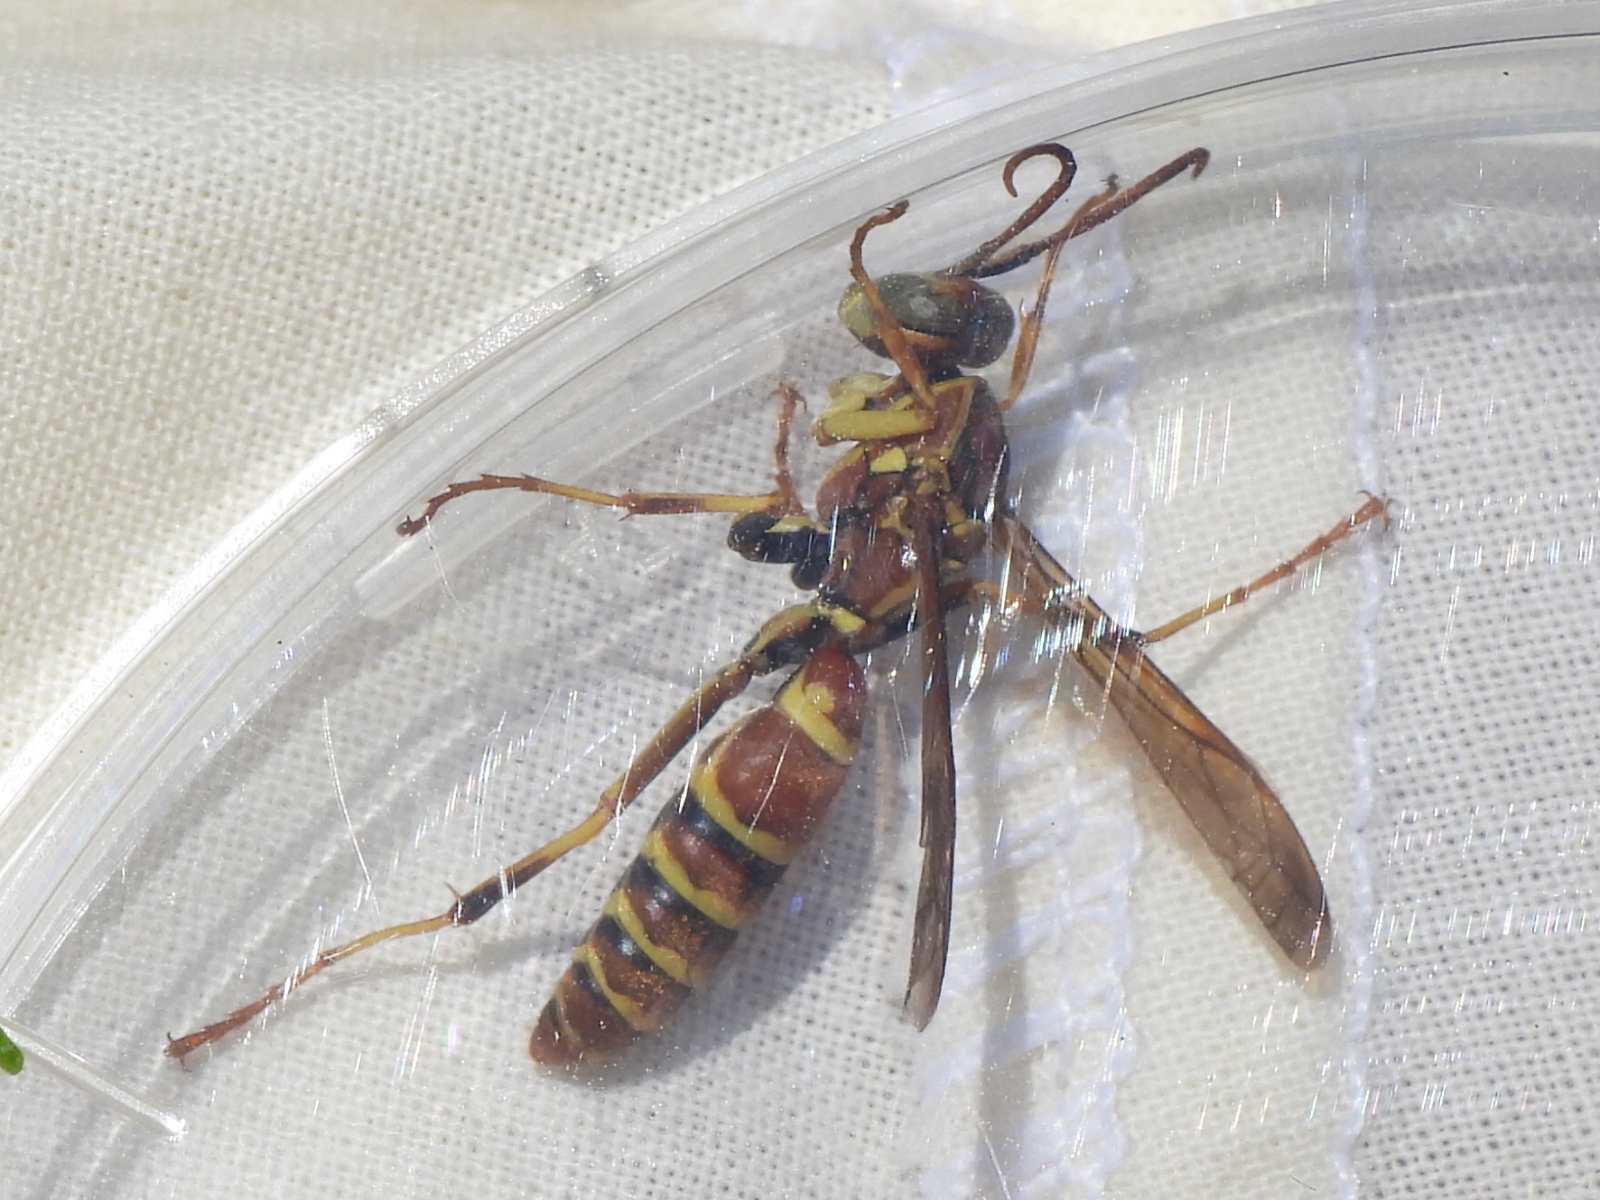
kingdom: Animalia
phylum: Arthropoda
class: Insecta
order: Hymenoptera
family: Eumenidae
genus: Polistes
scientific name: Polistes dorsalis
